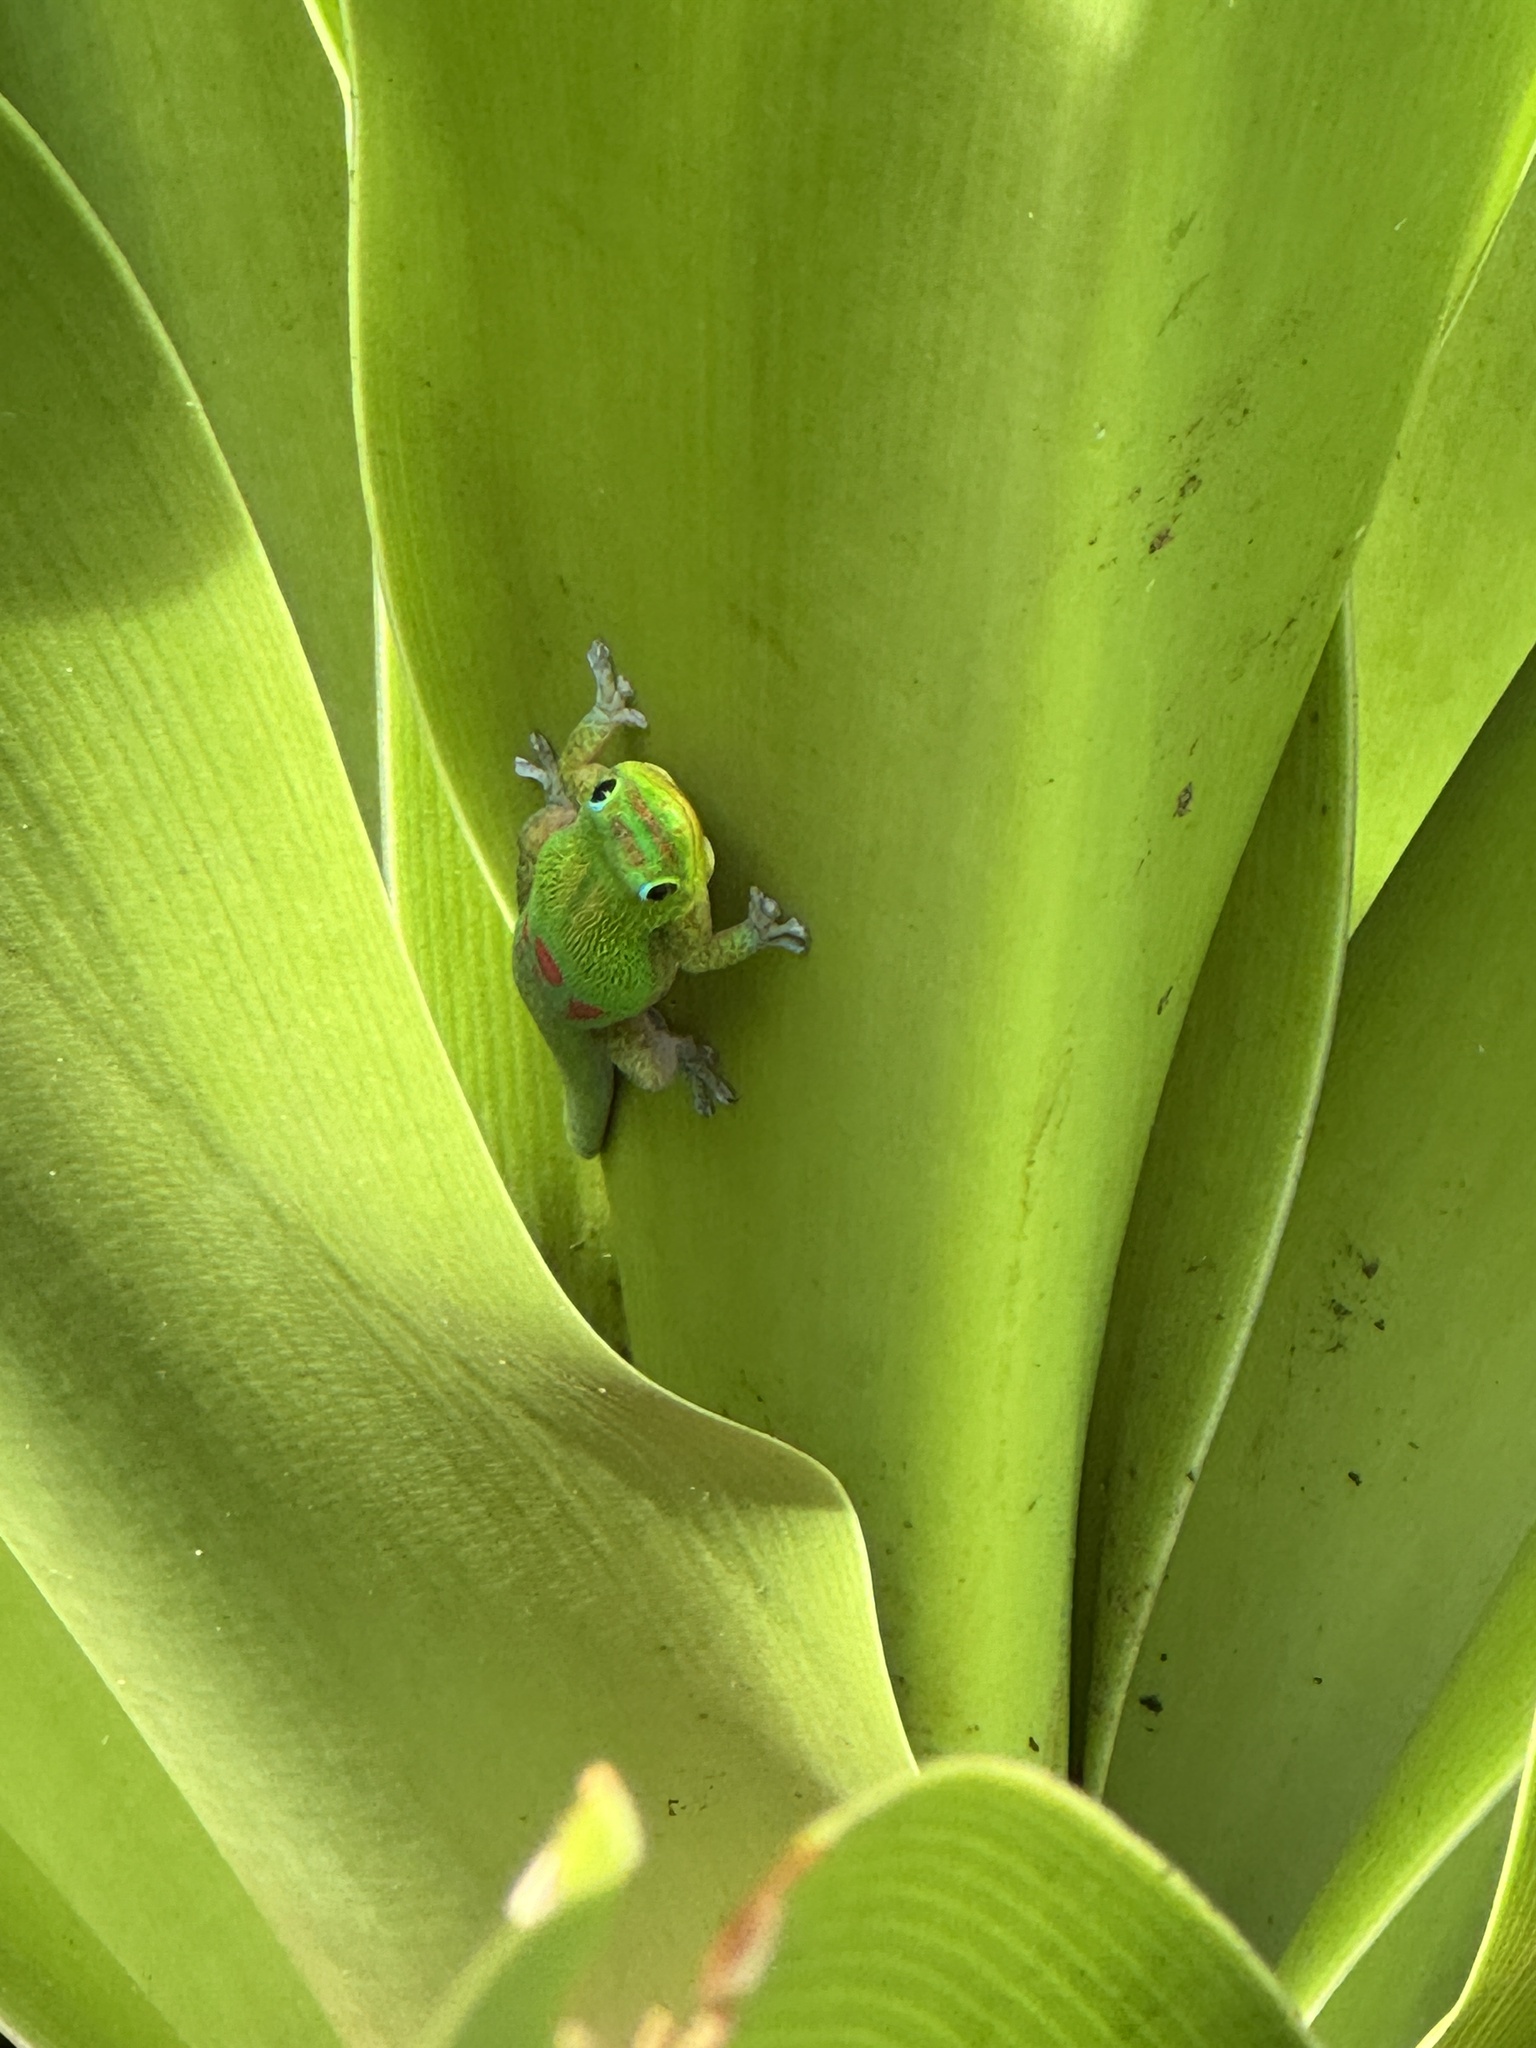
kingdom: Animalia
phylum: Chordata
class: Squamata
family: Gekkonidae
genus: Phelsuma
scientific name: Phelsuma laticauda
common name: Gold dust day gecko
